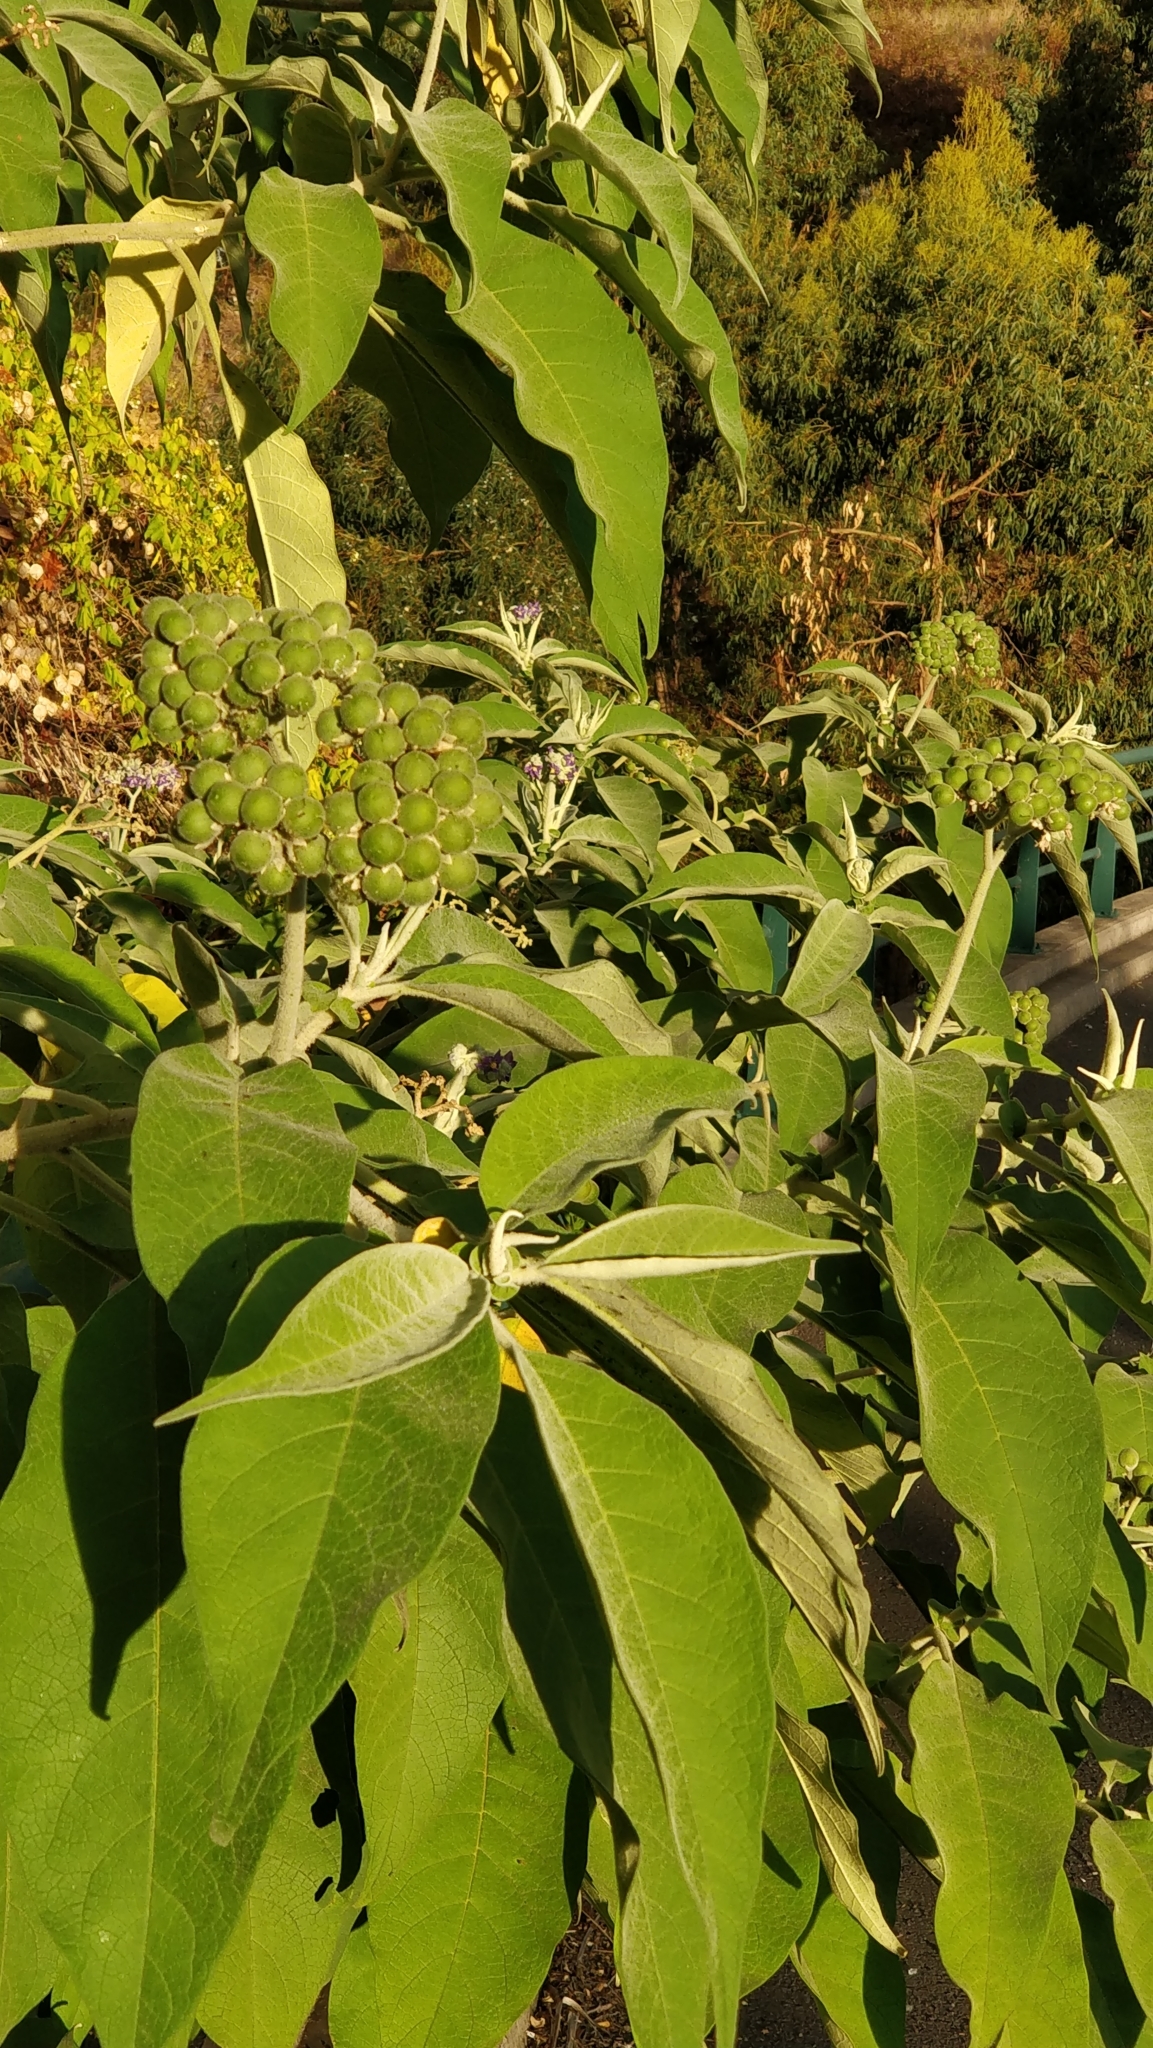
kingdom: Plantae
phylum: Tracheophyta
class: Magnoliopsida
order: Solanales
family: Solanaceae
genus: Solanum
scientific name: Solanum mauritianum
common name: Earleaf nightshade
